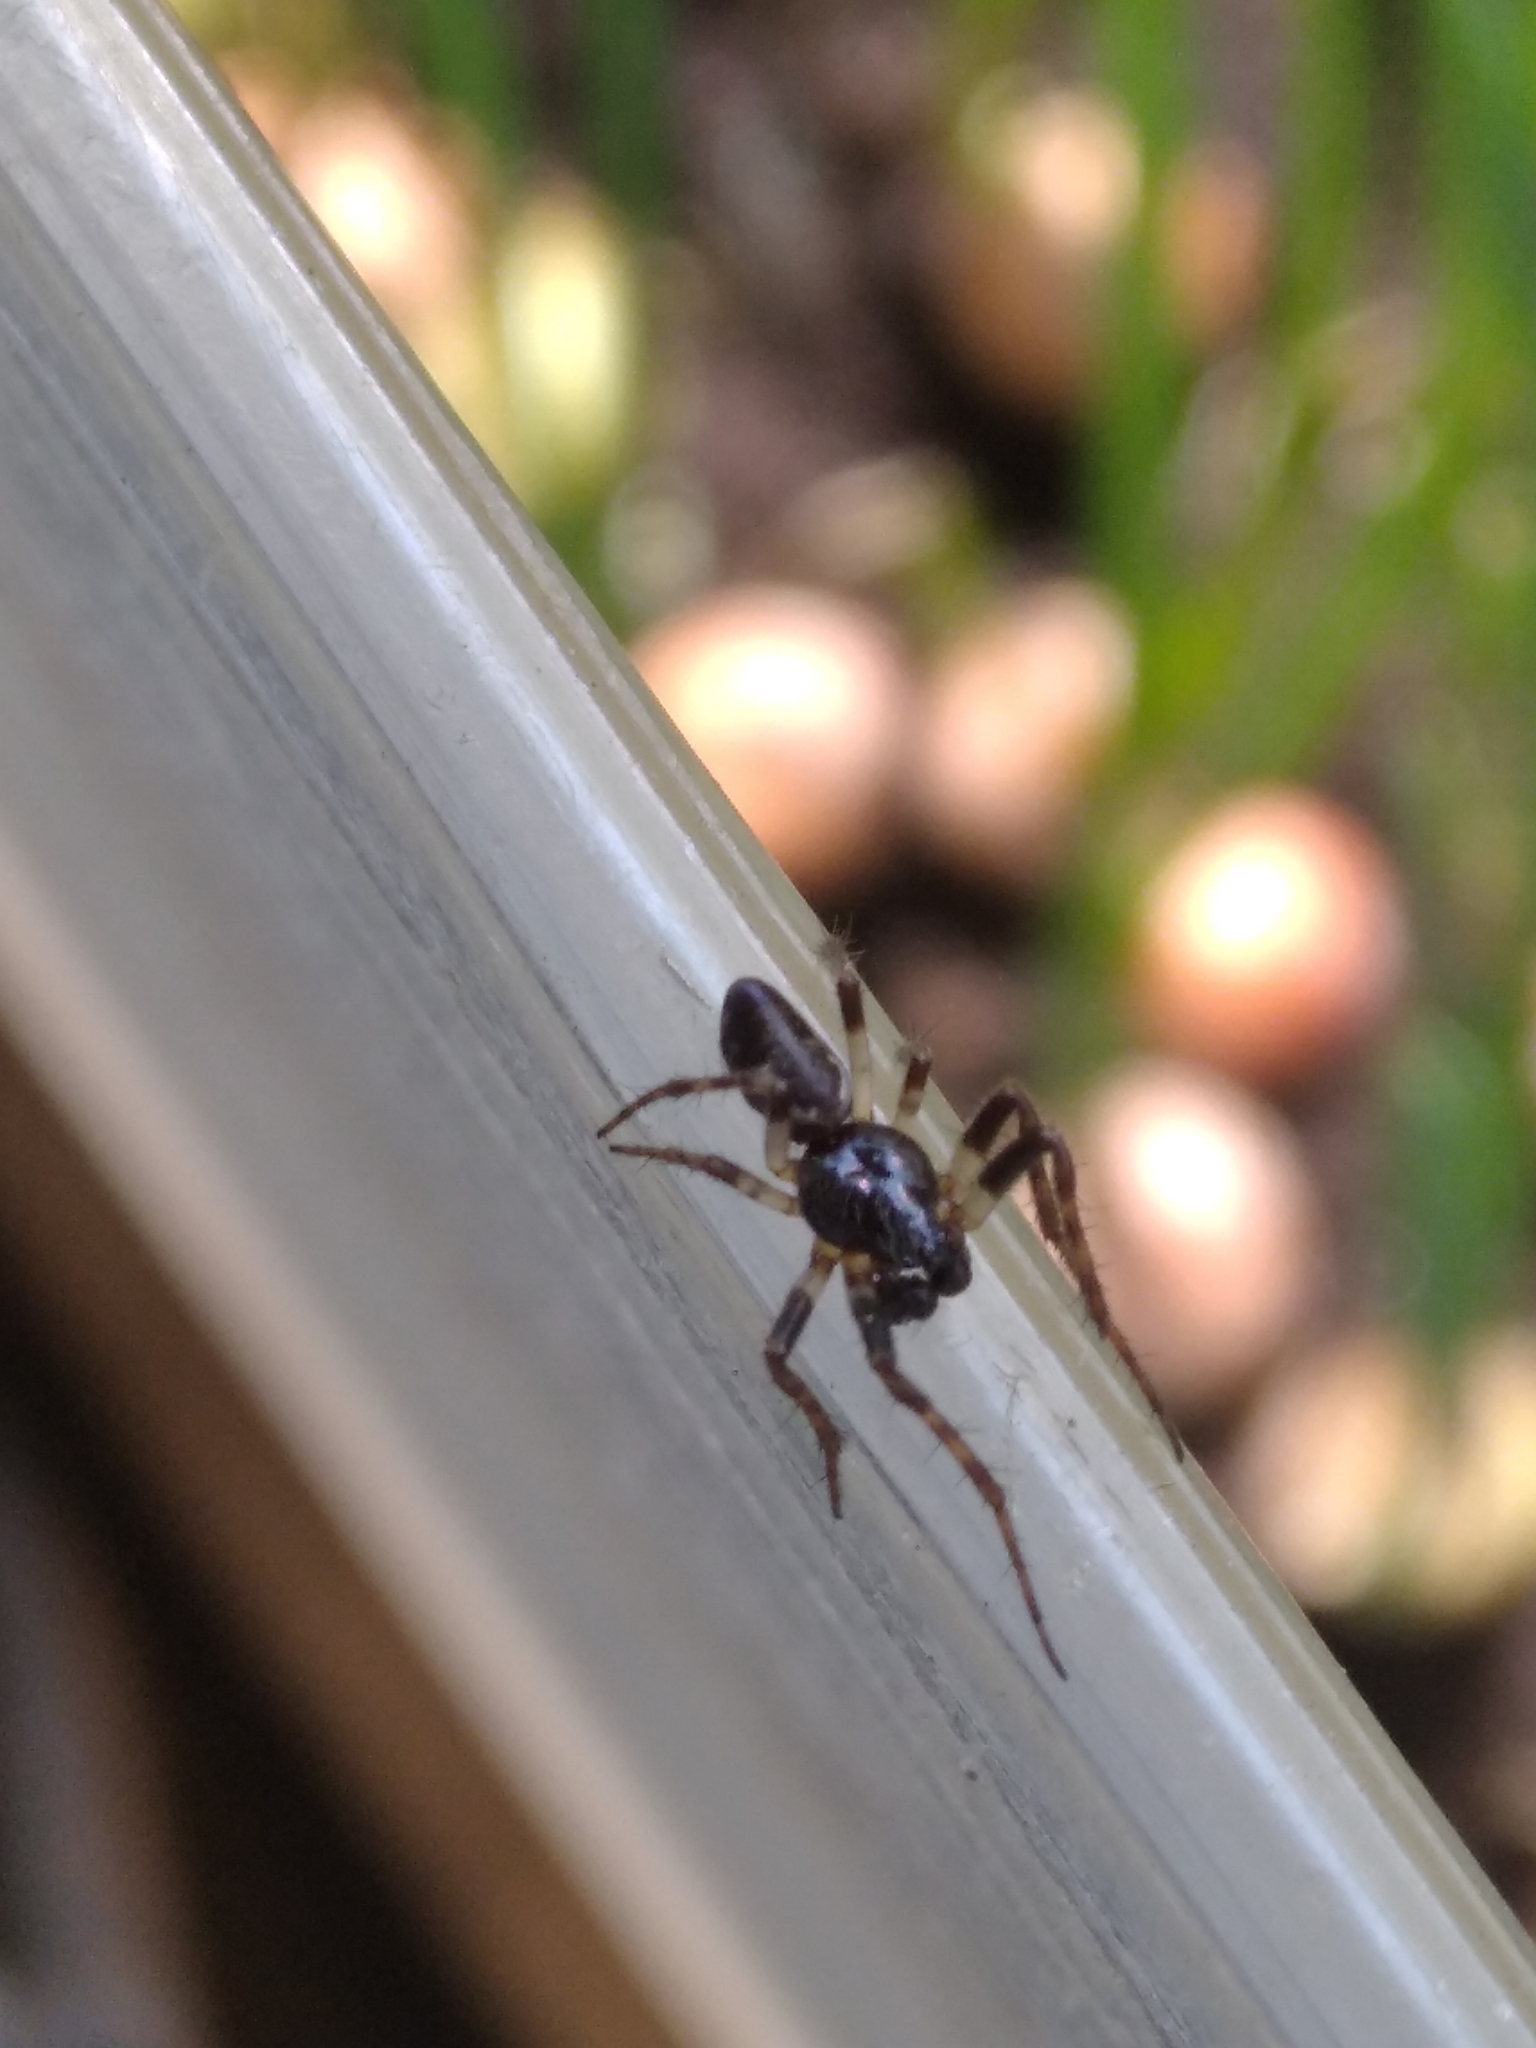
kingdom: Animalia
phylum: Arthropoda
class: Arachnida
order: Araneae
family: Araneidae
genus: Cyclosa
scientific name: Cyclosa conica
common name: Conical trashline orbweaver
